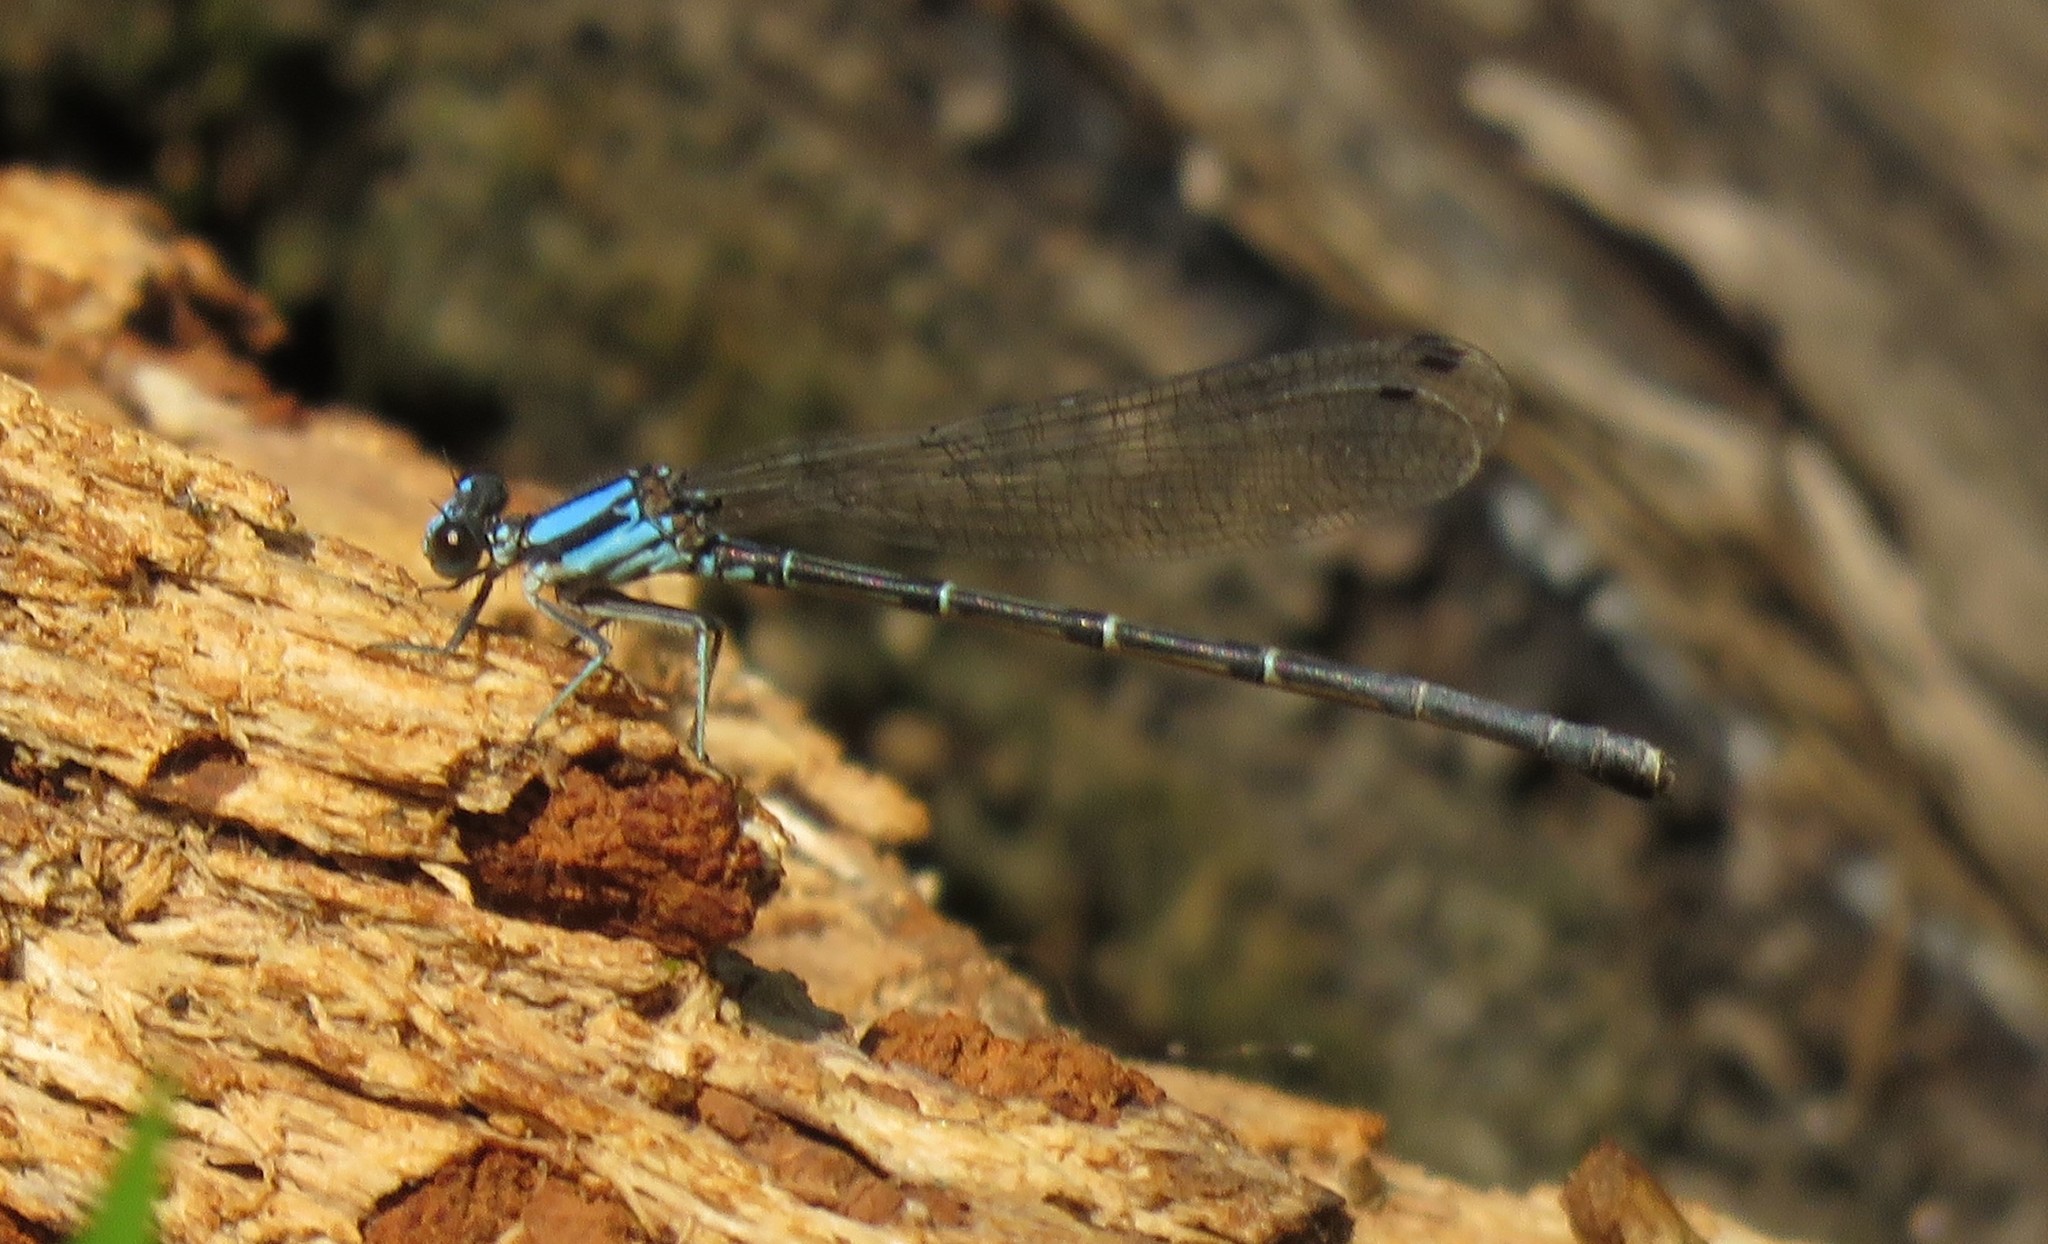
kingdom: Animalia
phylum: Arthropoda
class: Insecta
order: Odonata
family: Coenagrionidae
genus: Argia
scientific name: Argia tibialis
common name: Blue-tipped dancer
